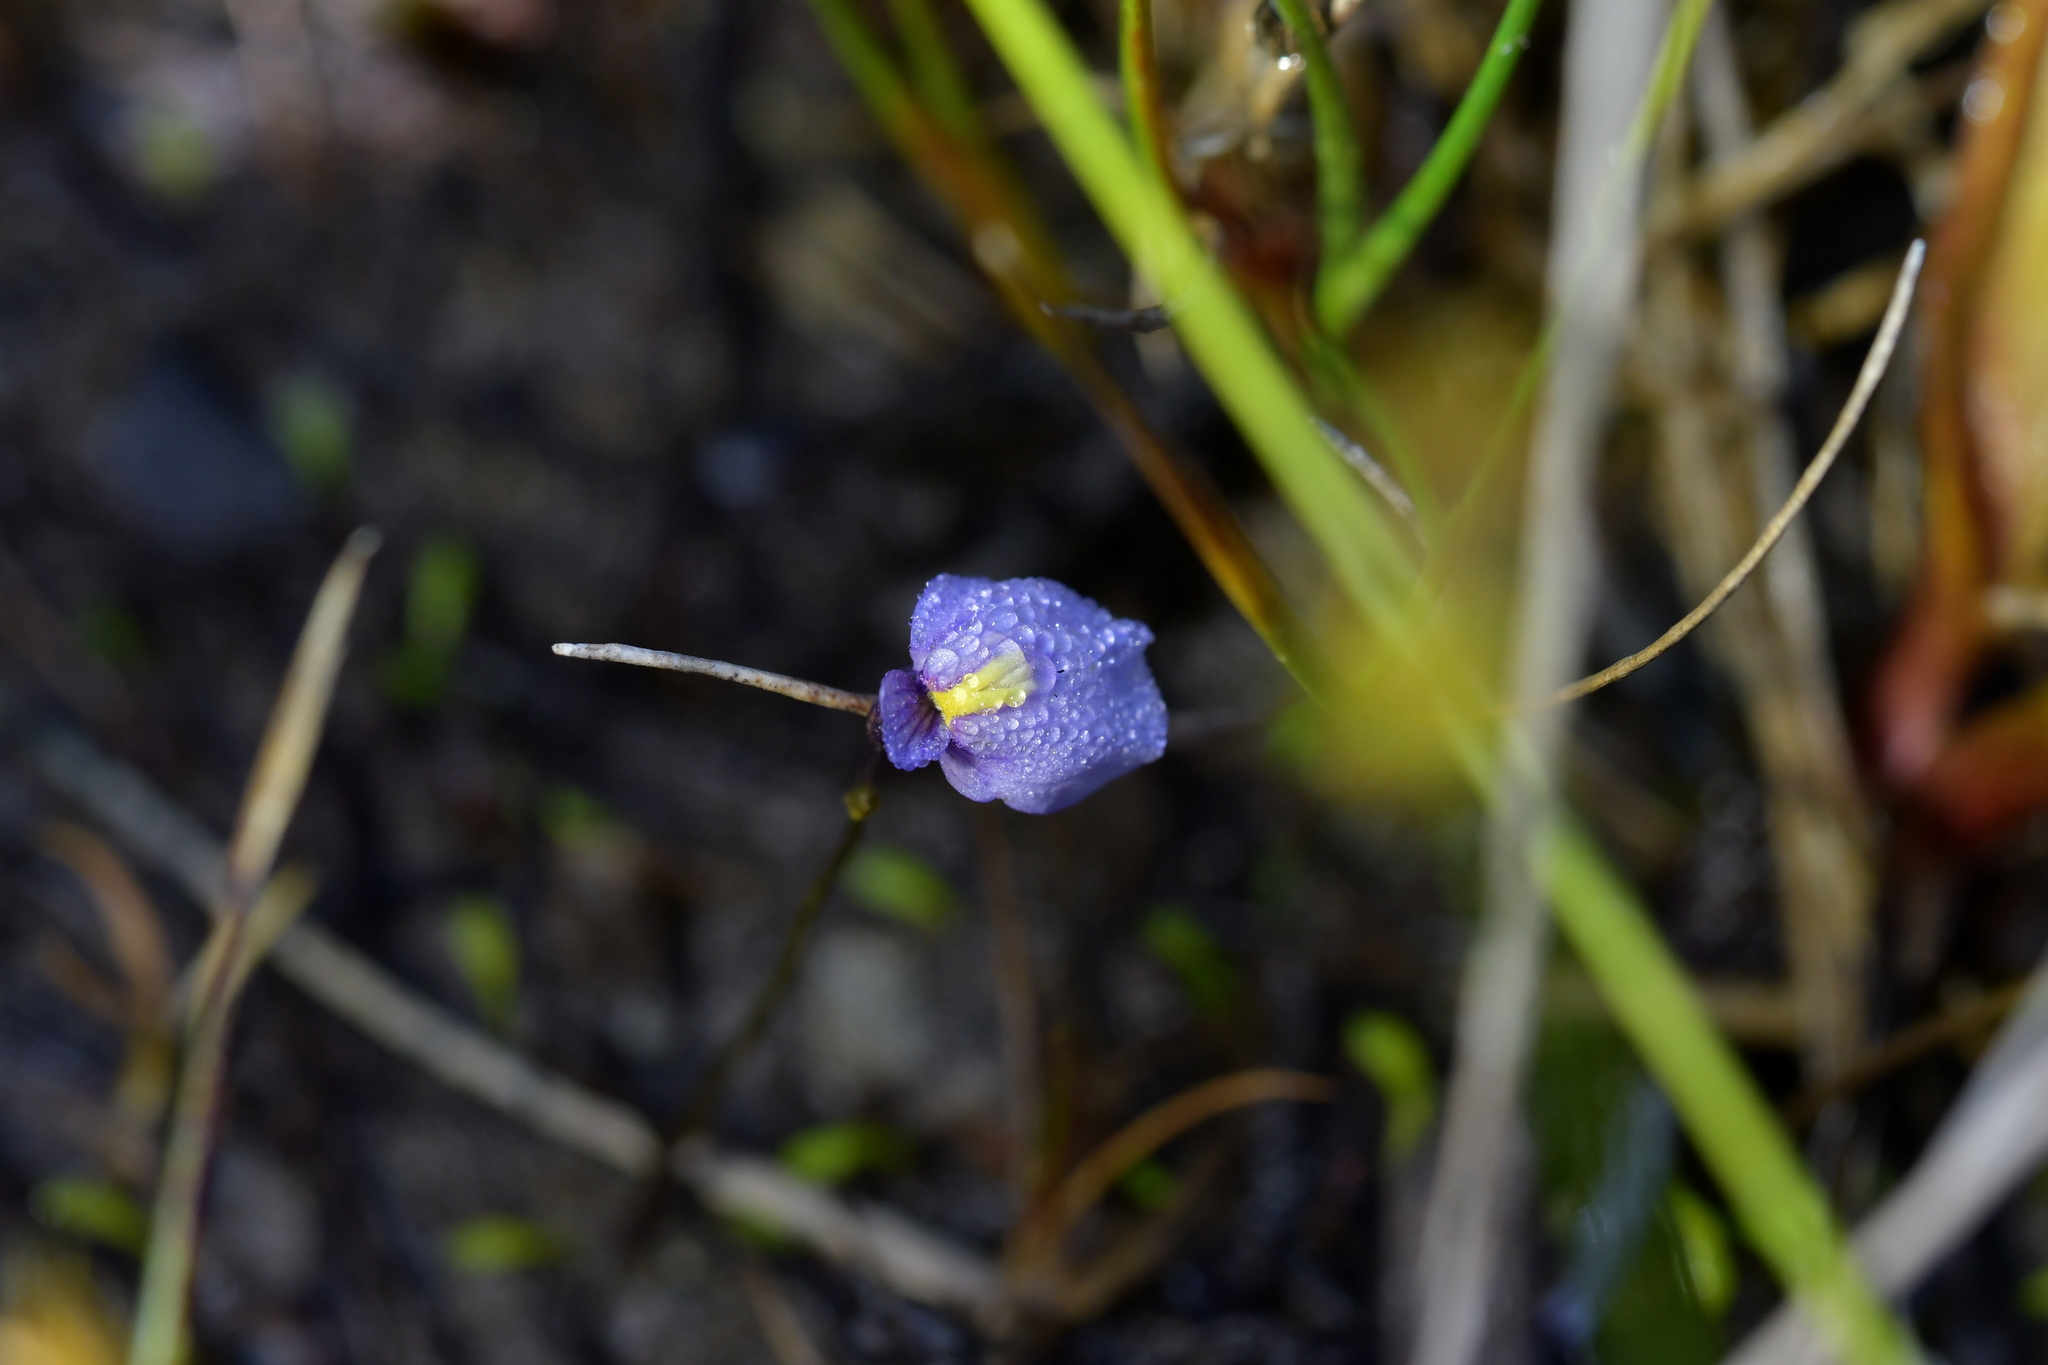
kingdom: Plantae
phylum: Tracheophyta
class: Magnoliopsida
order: Lamiales
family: Lentibulariaceae
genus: Utricularia
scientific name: Utricularia dichotoma
